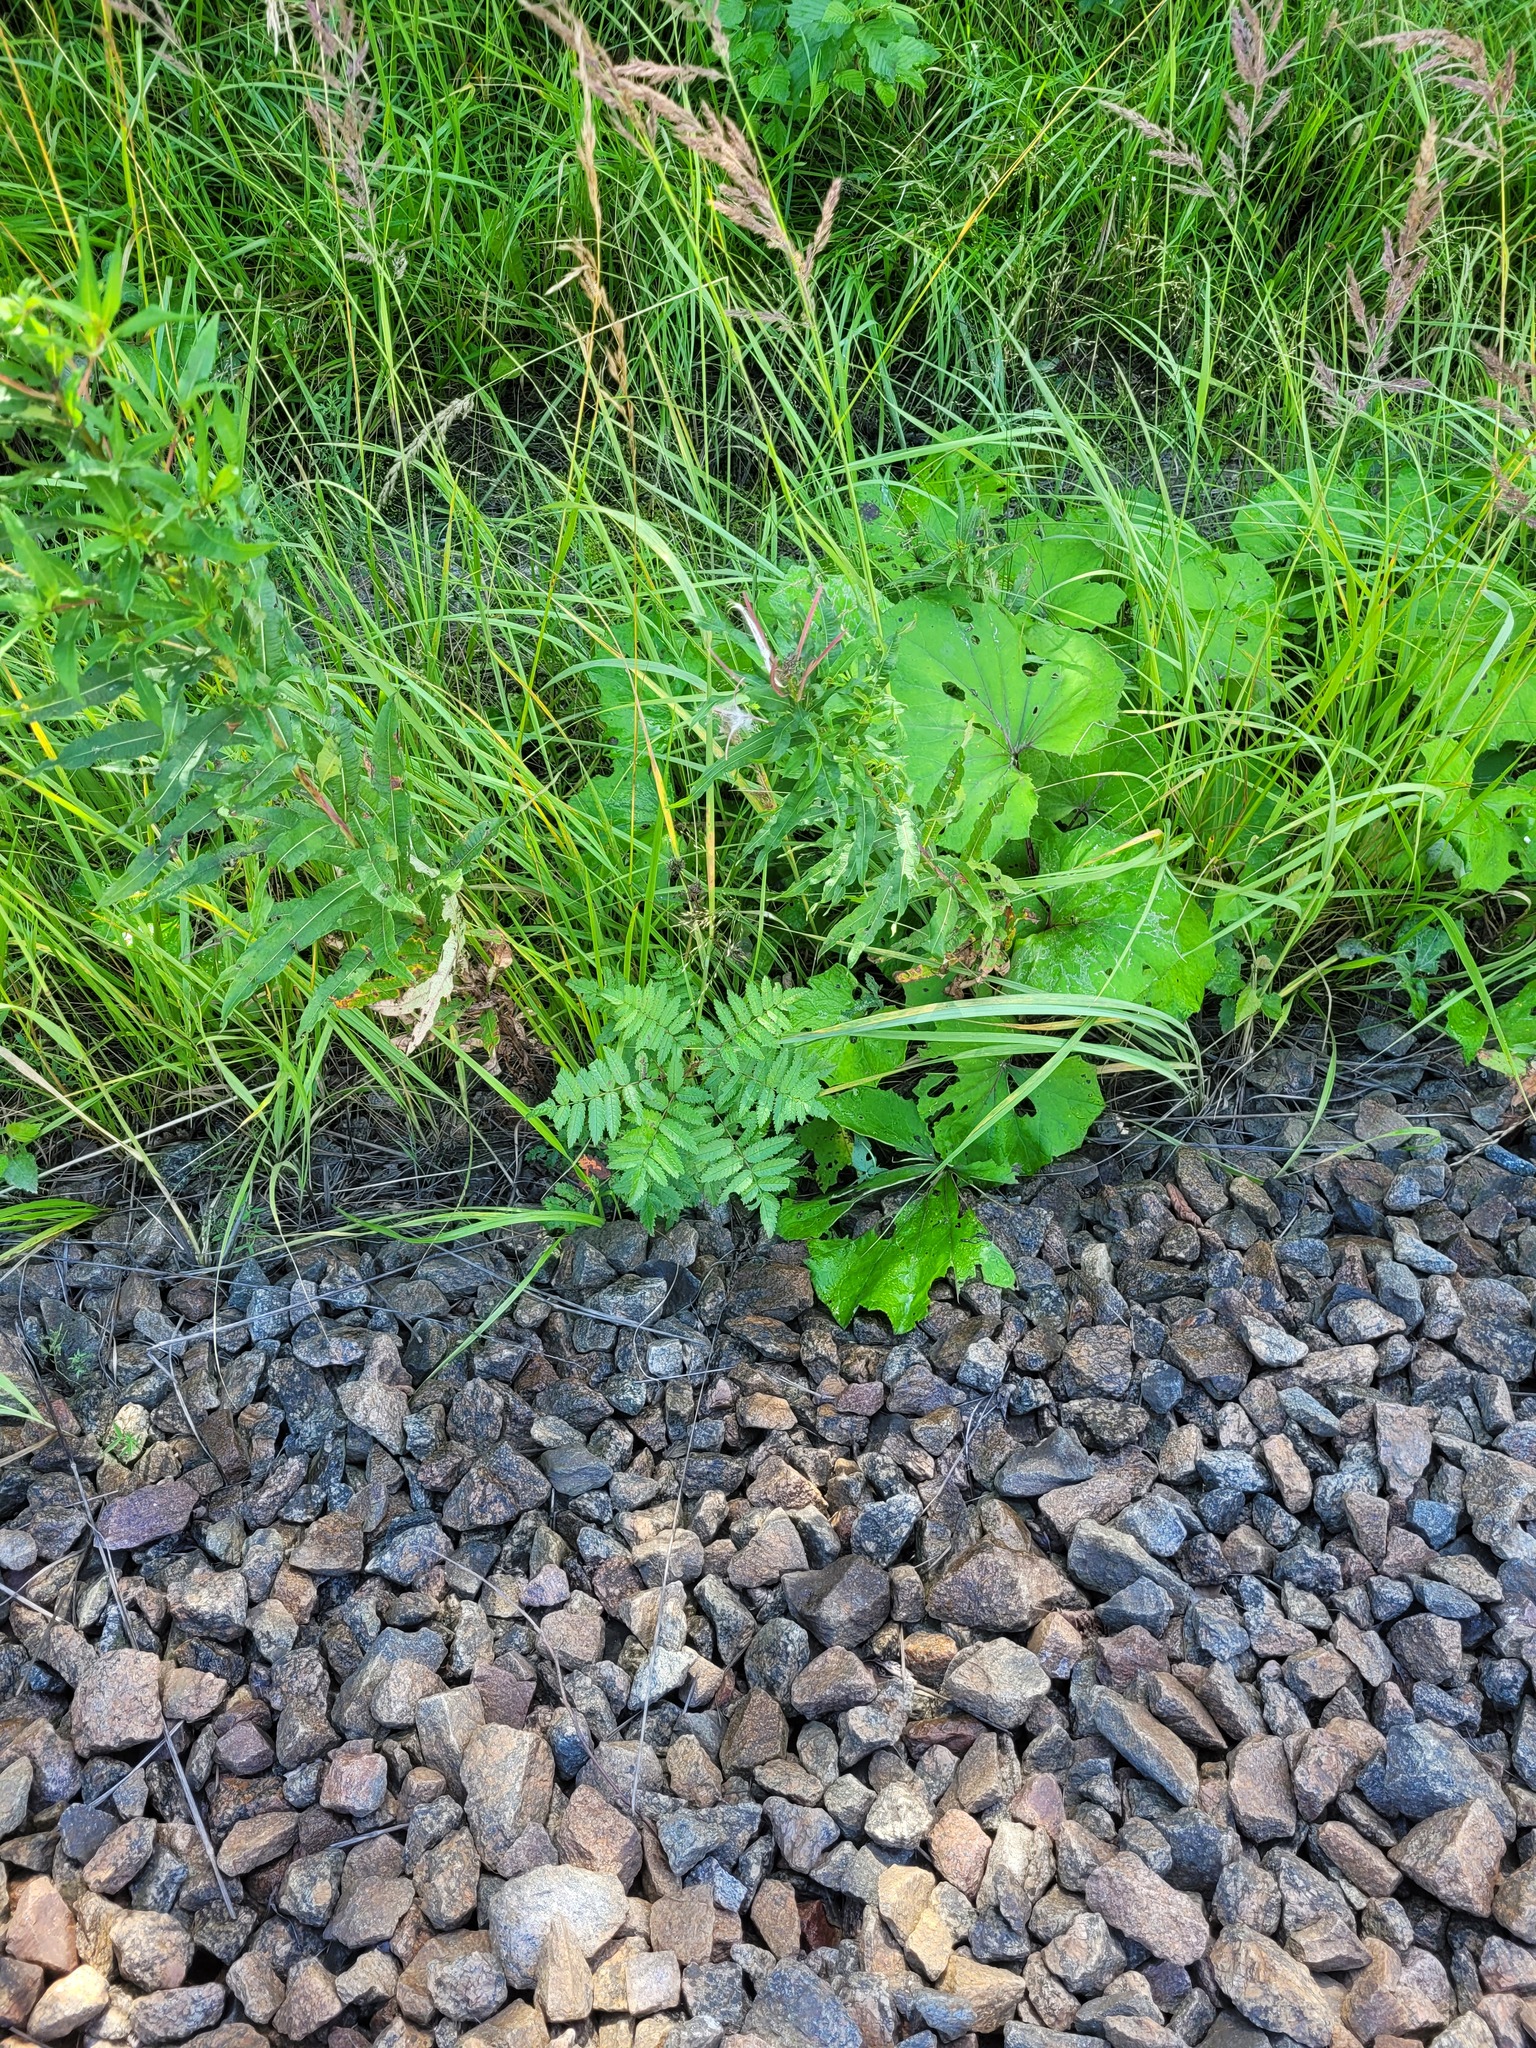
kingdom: Plantae
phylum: Tracheophyta
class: Magnoliopsida
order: Rosales
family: Rosaceae
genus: Sorbus
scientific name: Sorbus aucuparia
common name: Rowan
